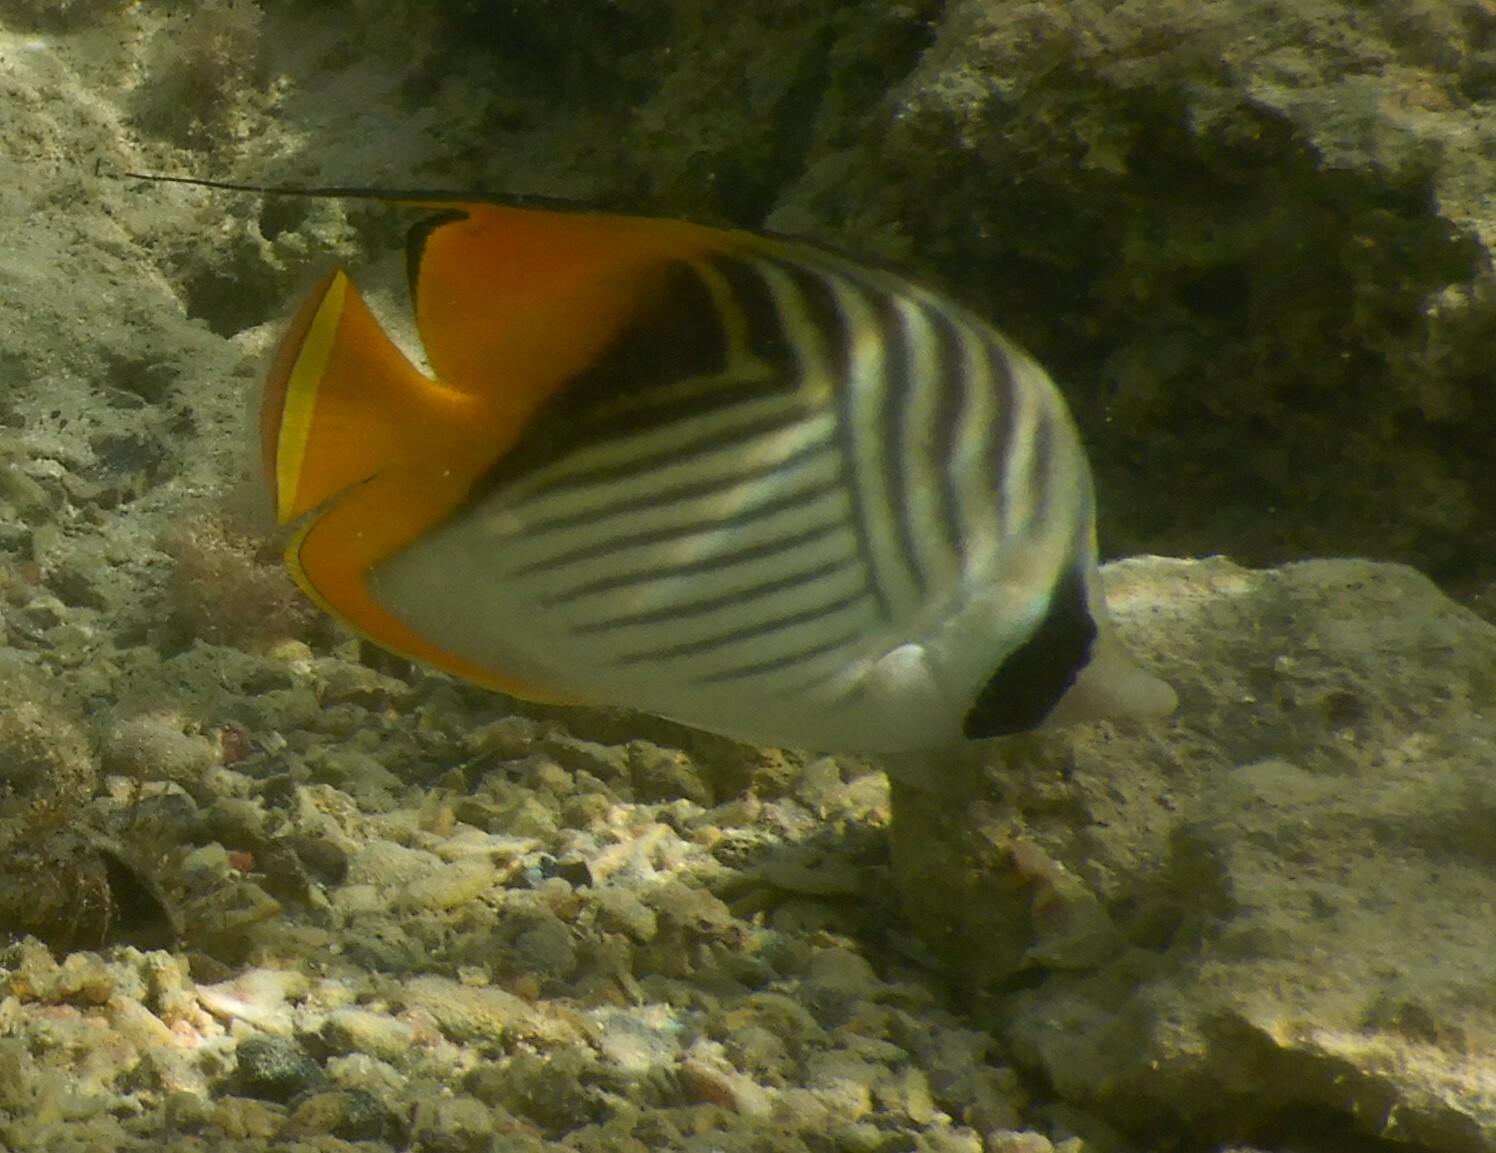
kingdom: Animalia
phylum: Chordata
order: Perciformes
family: Chaetodontidae
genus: Chaetodon
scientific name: Chaetodon auriga
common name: Threadfin butterflyfish
